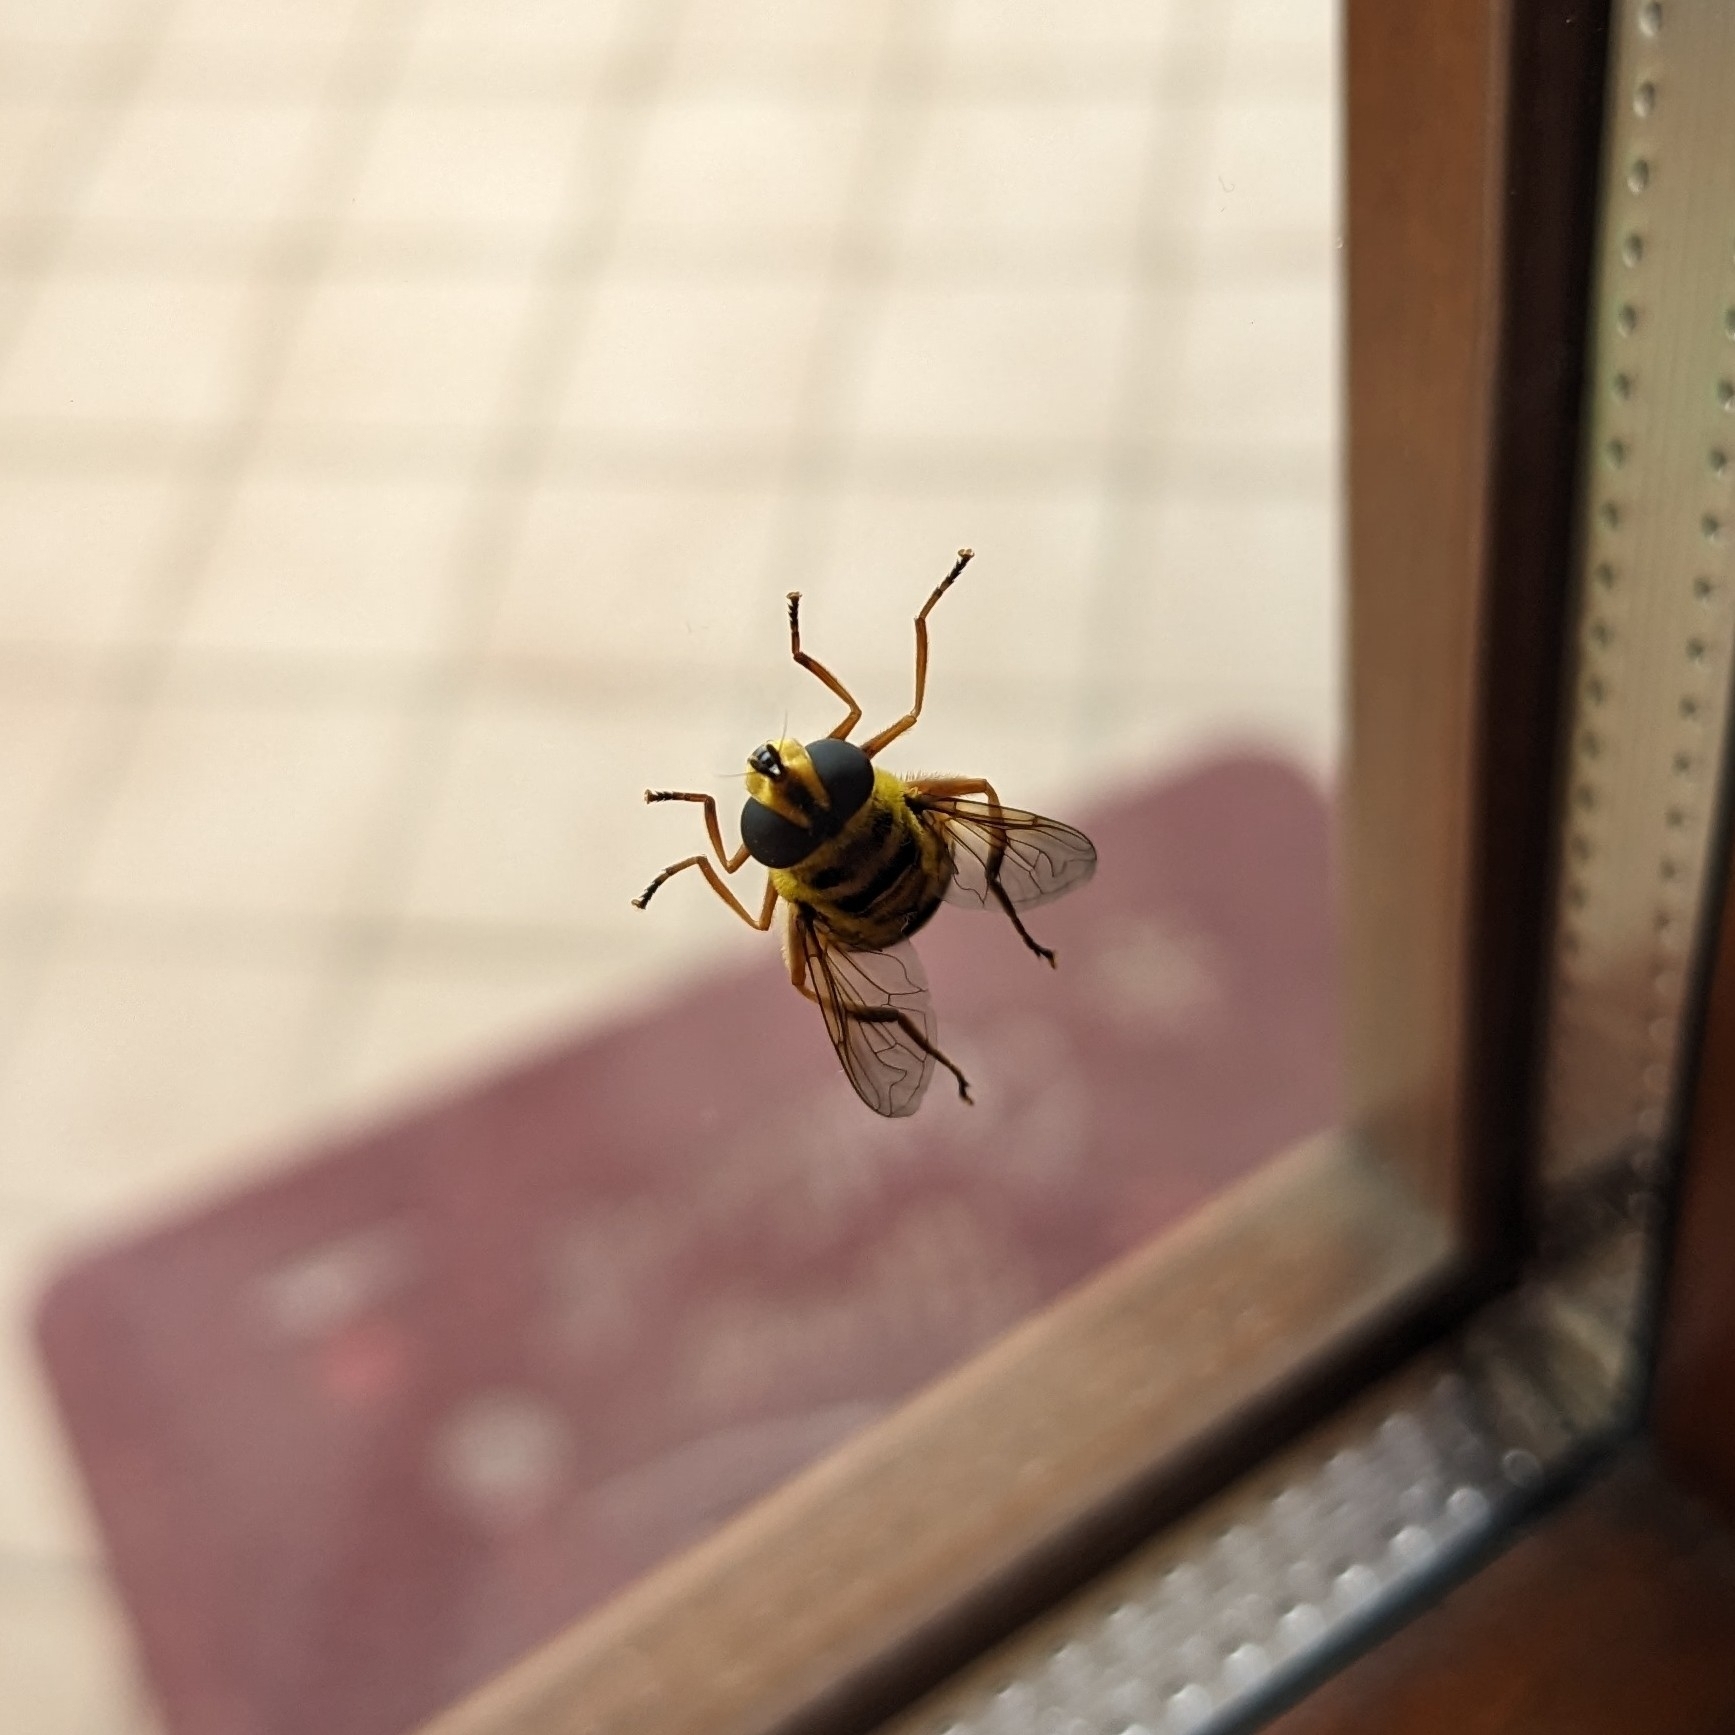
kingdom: Animalia
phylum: Arthropoda
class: Insecta
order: Diptera
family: Syrphidae
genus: Myathropa
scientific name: Myathropa florea
